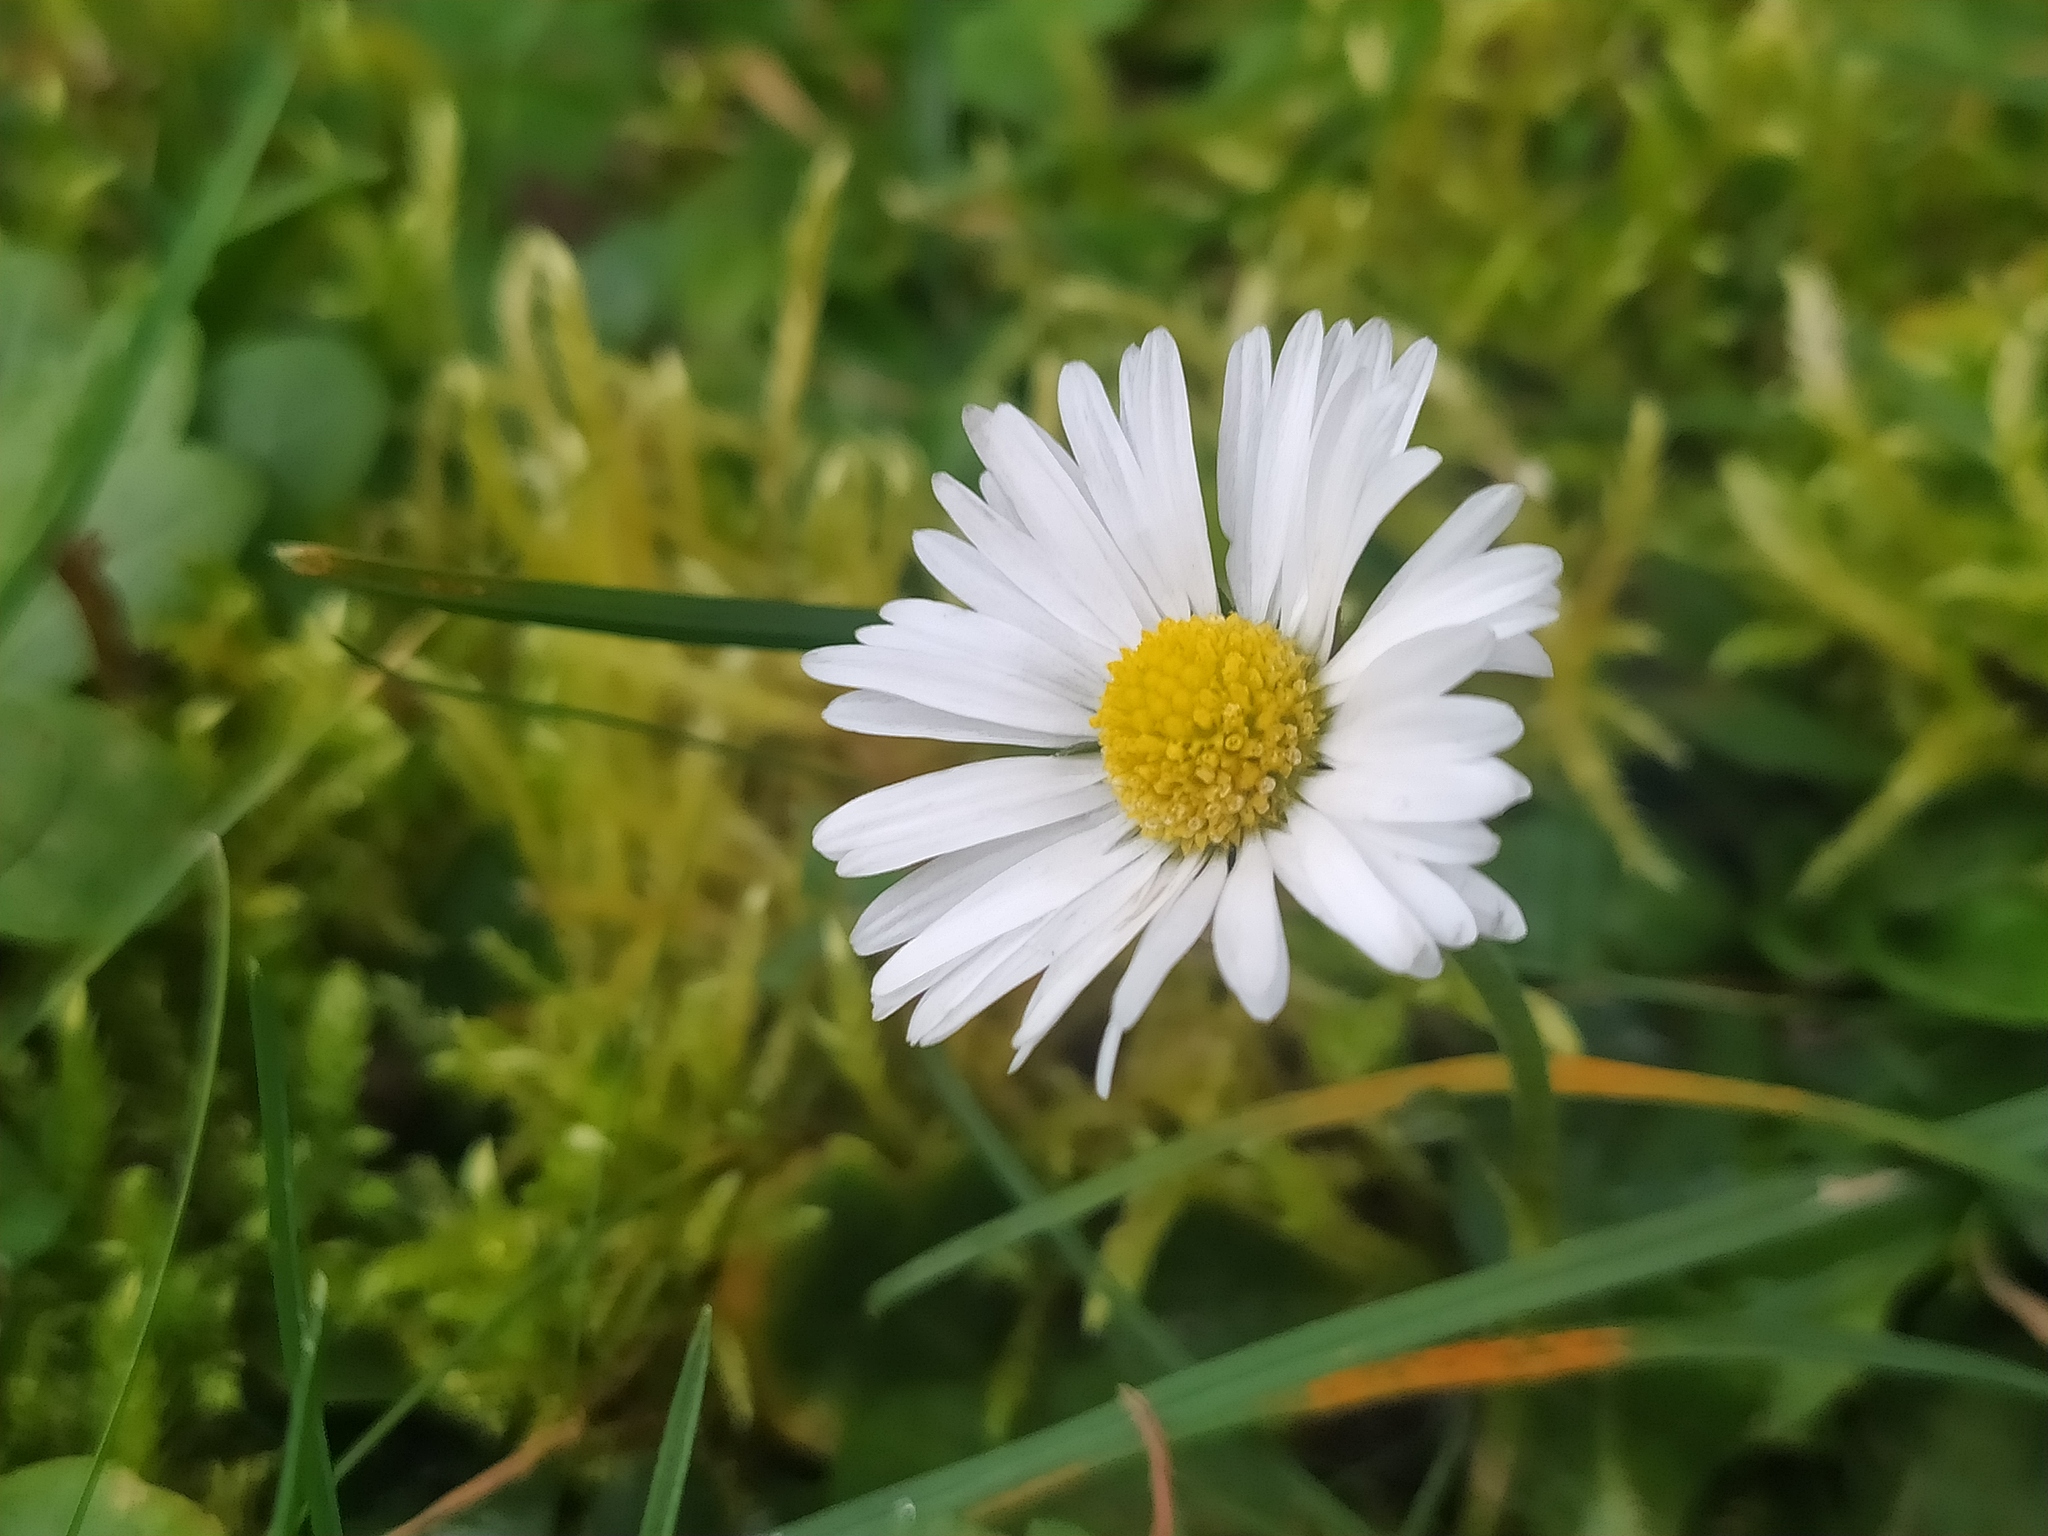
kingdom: Plantae
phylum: Tracheophyta
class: Magnoliopsida
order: Asterales
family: Asteraceae
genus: Bellis
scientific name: Bellis perennis
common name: Lawndaisy
